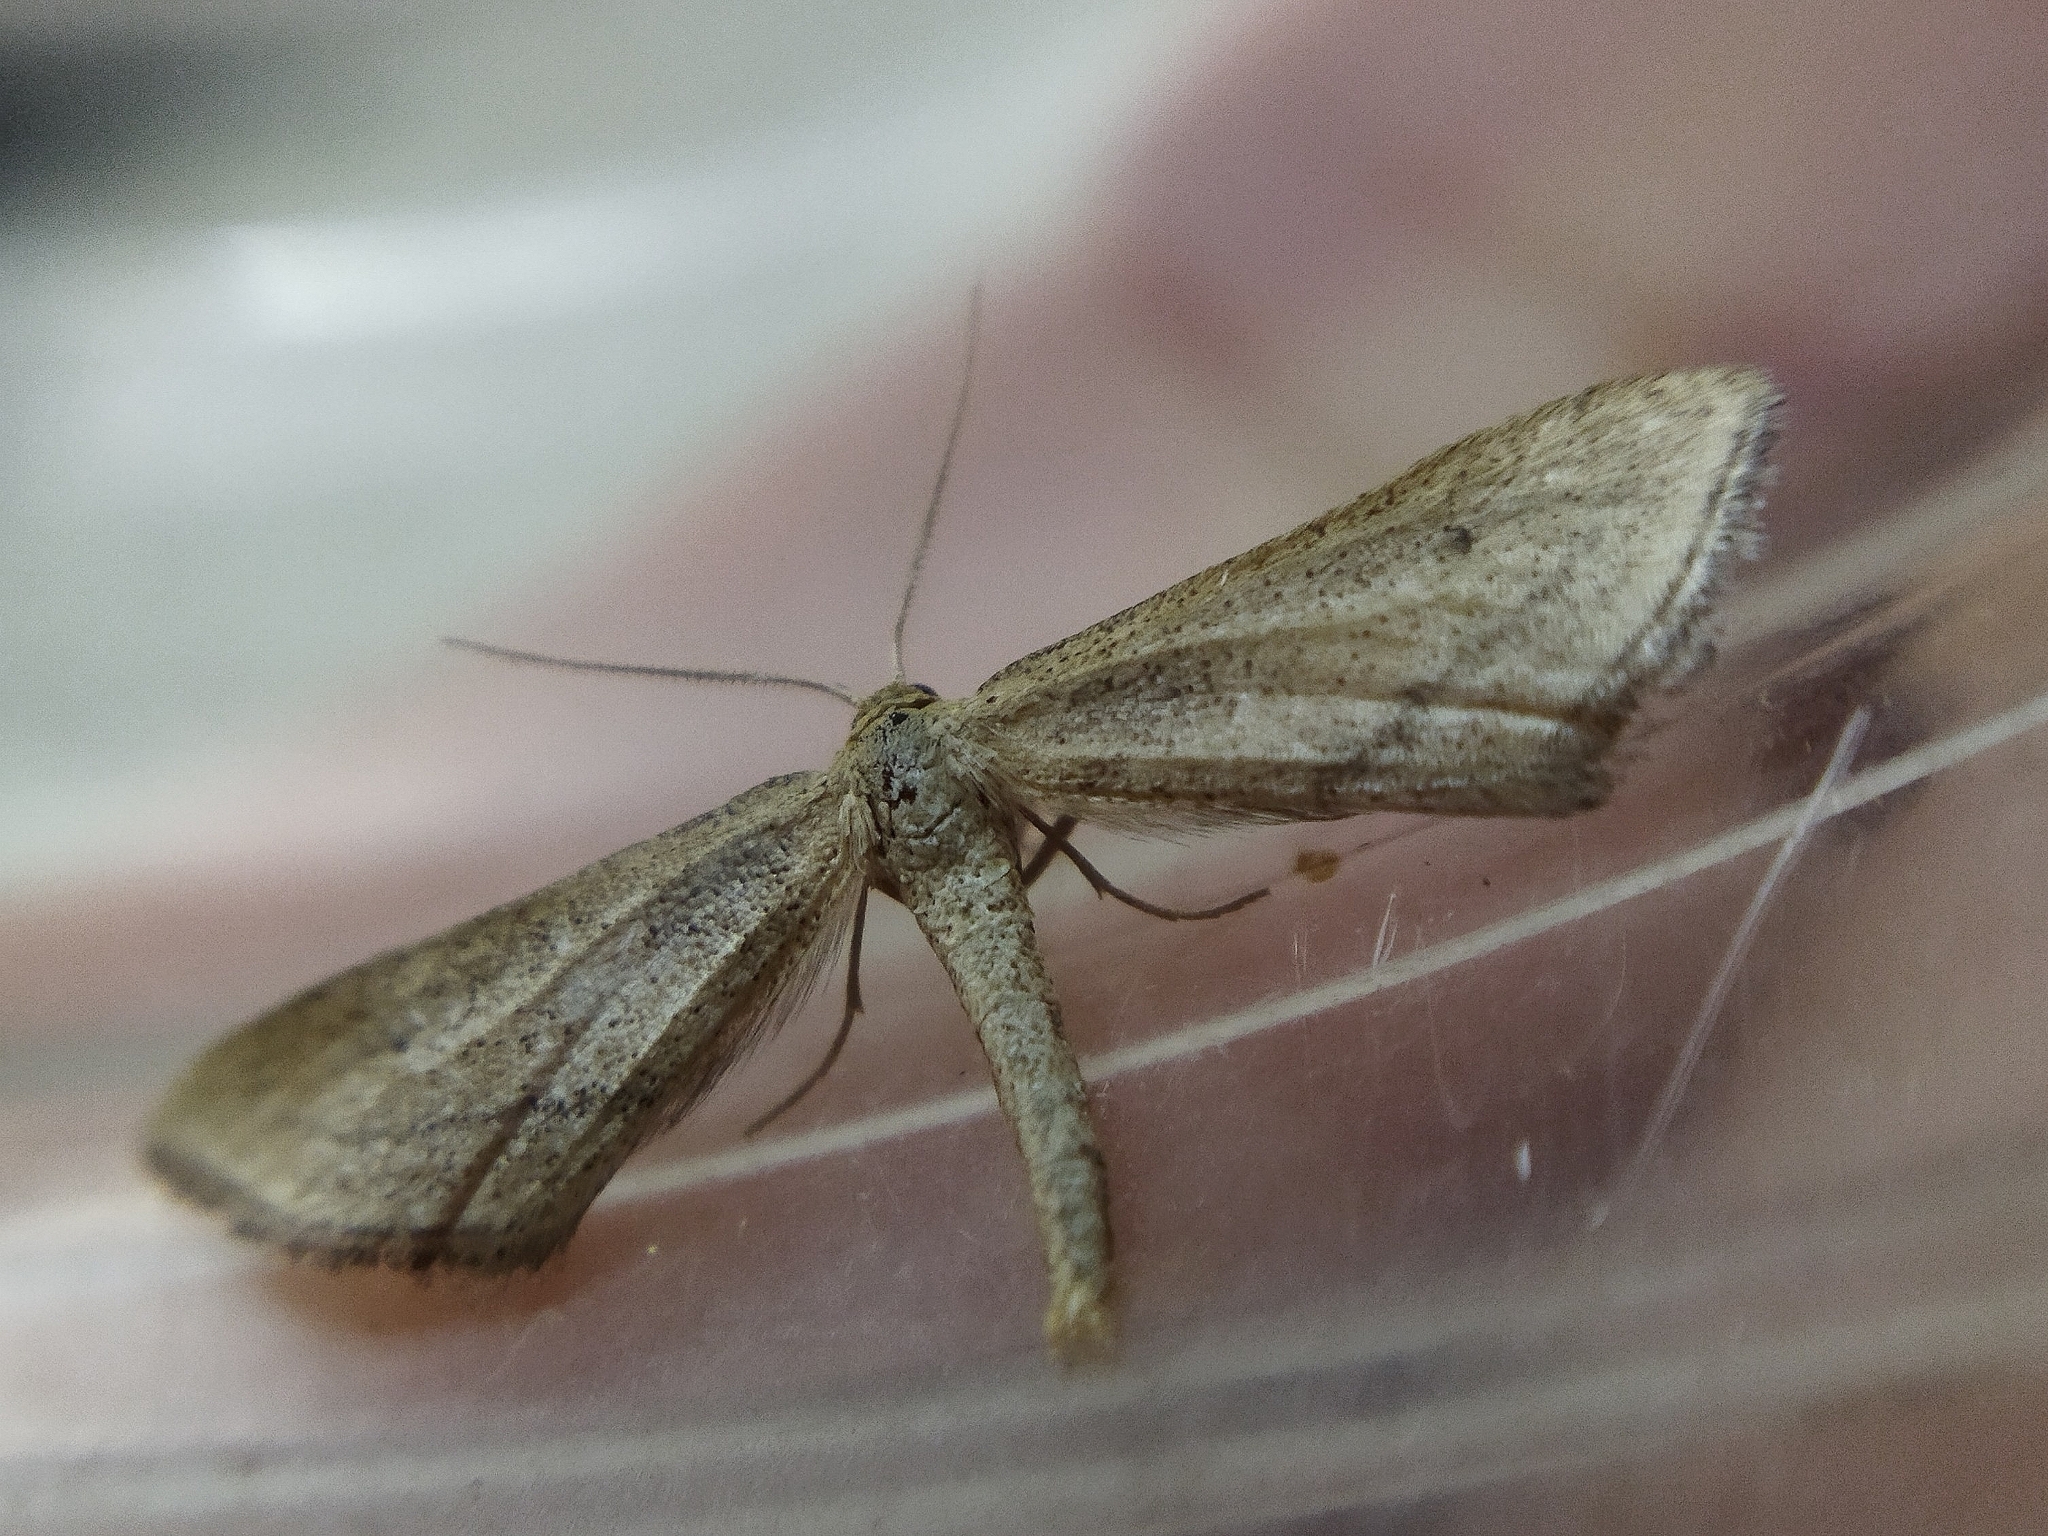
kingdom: Animalia
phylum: Arthropoda
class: Insecta
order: Lepidoptera
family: Geometridae
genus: Limeria
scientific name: Limeria macraria
